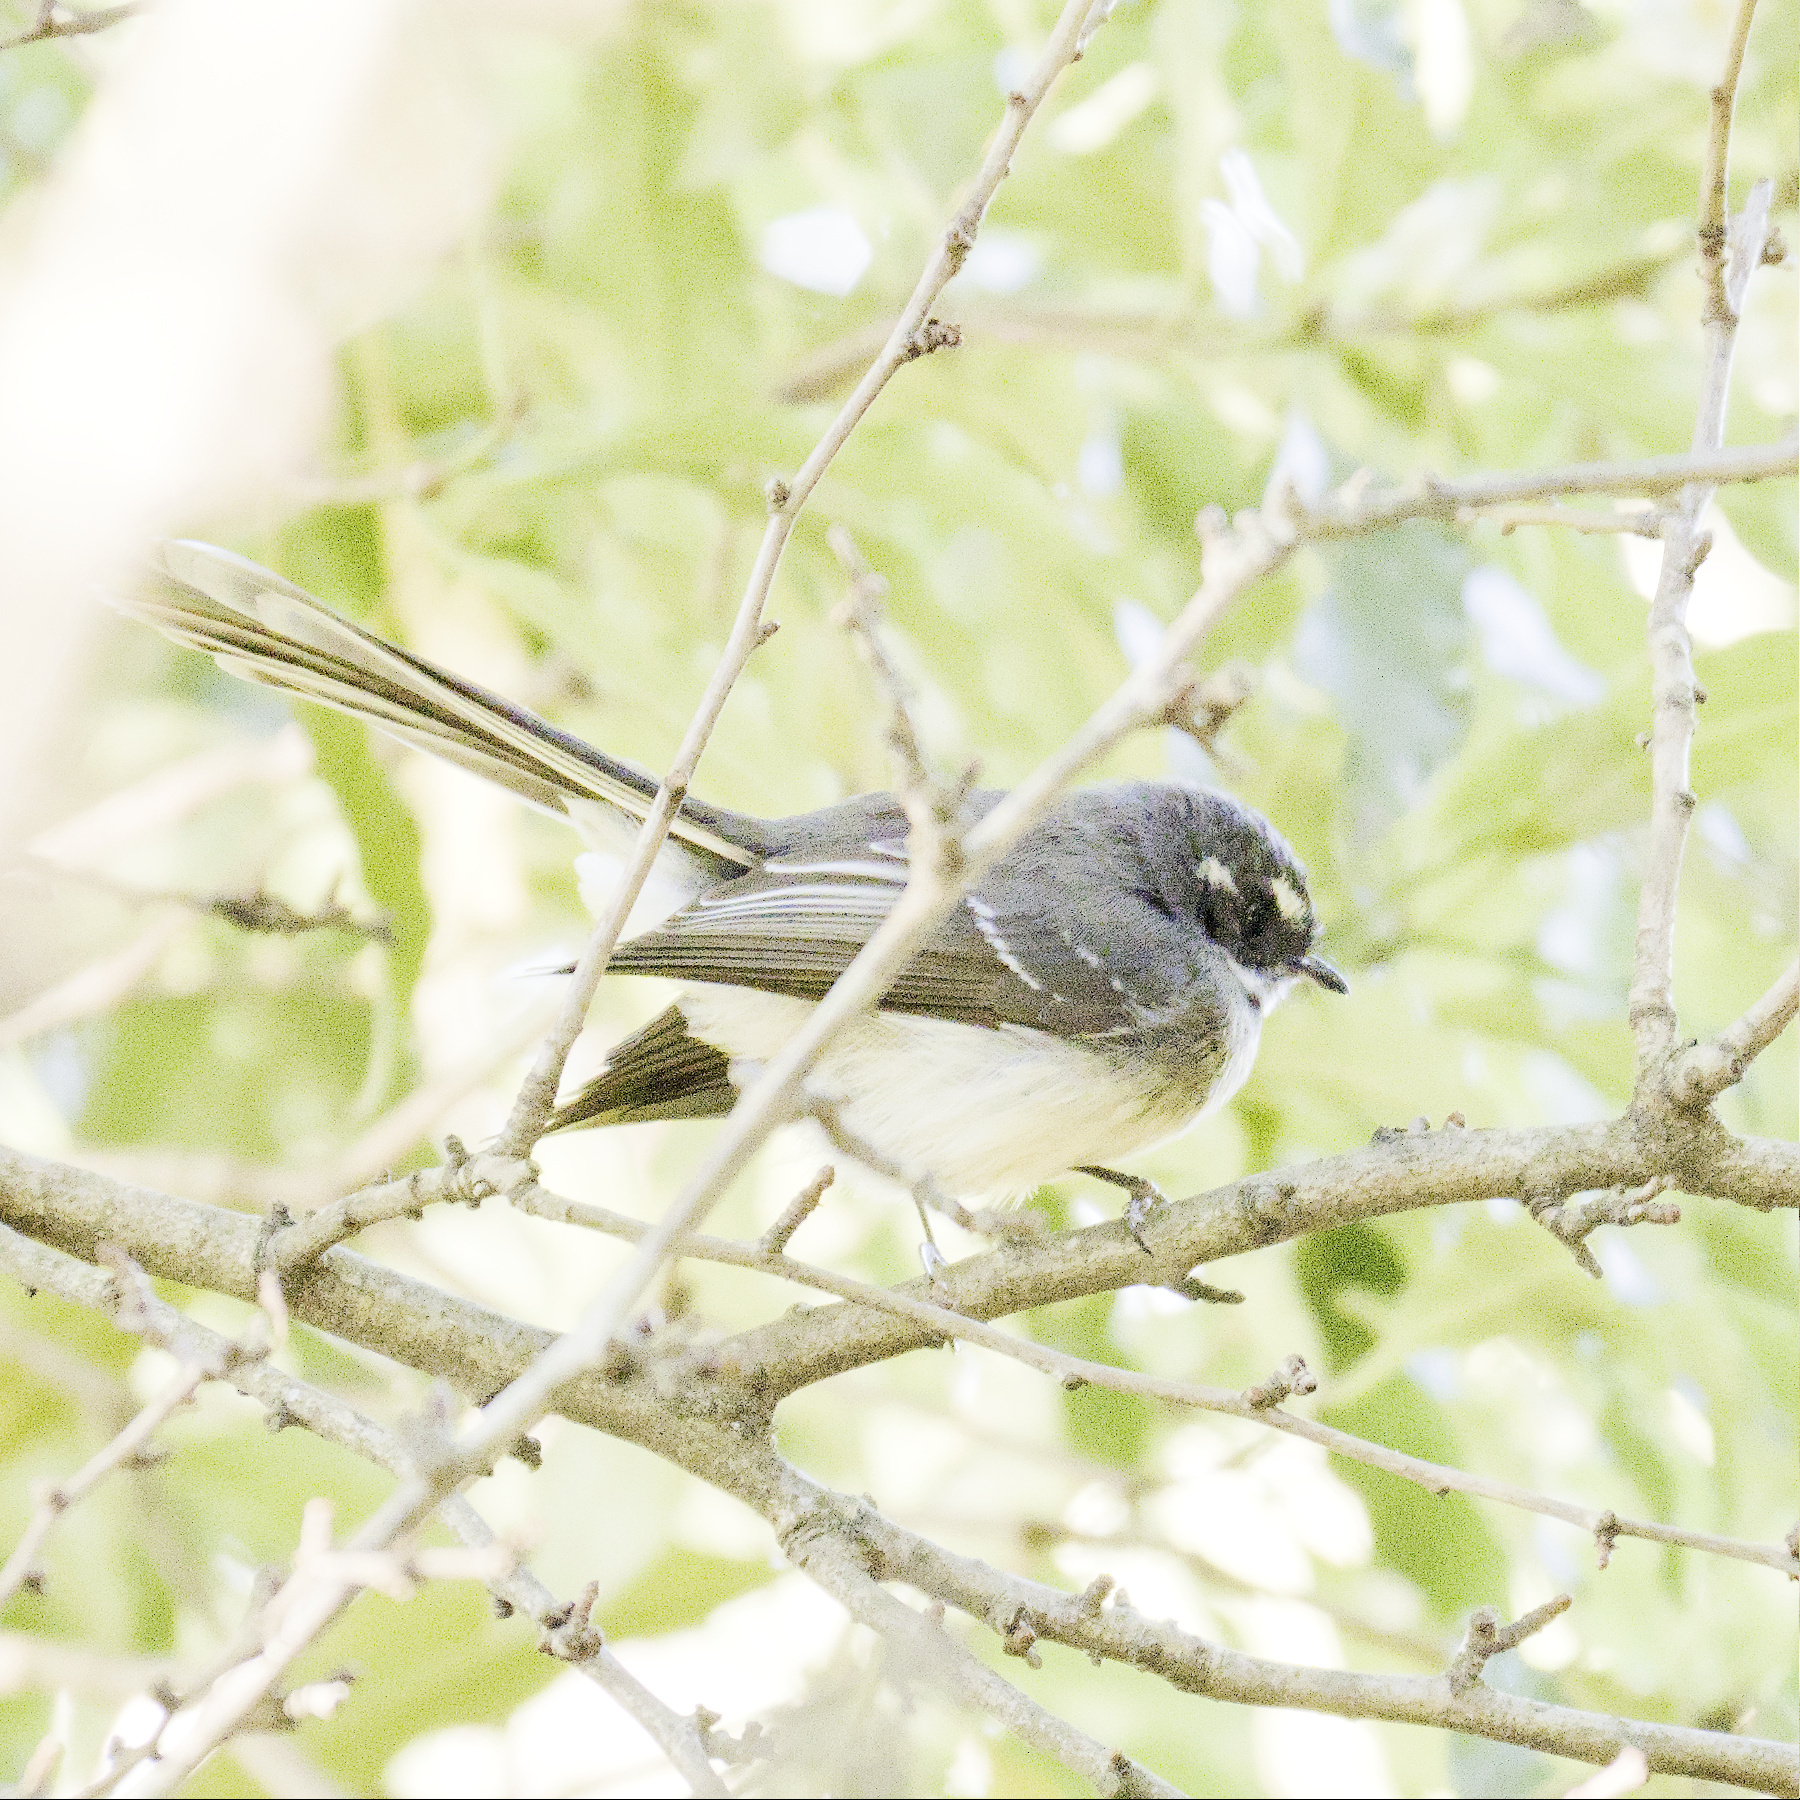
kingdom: Animalia
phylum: Chordata
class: Aves
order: Passeriformes
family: Rhipiduridae
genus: Rhipidura
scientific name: Rhipidura albiscapa
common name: Grey fantail
